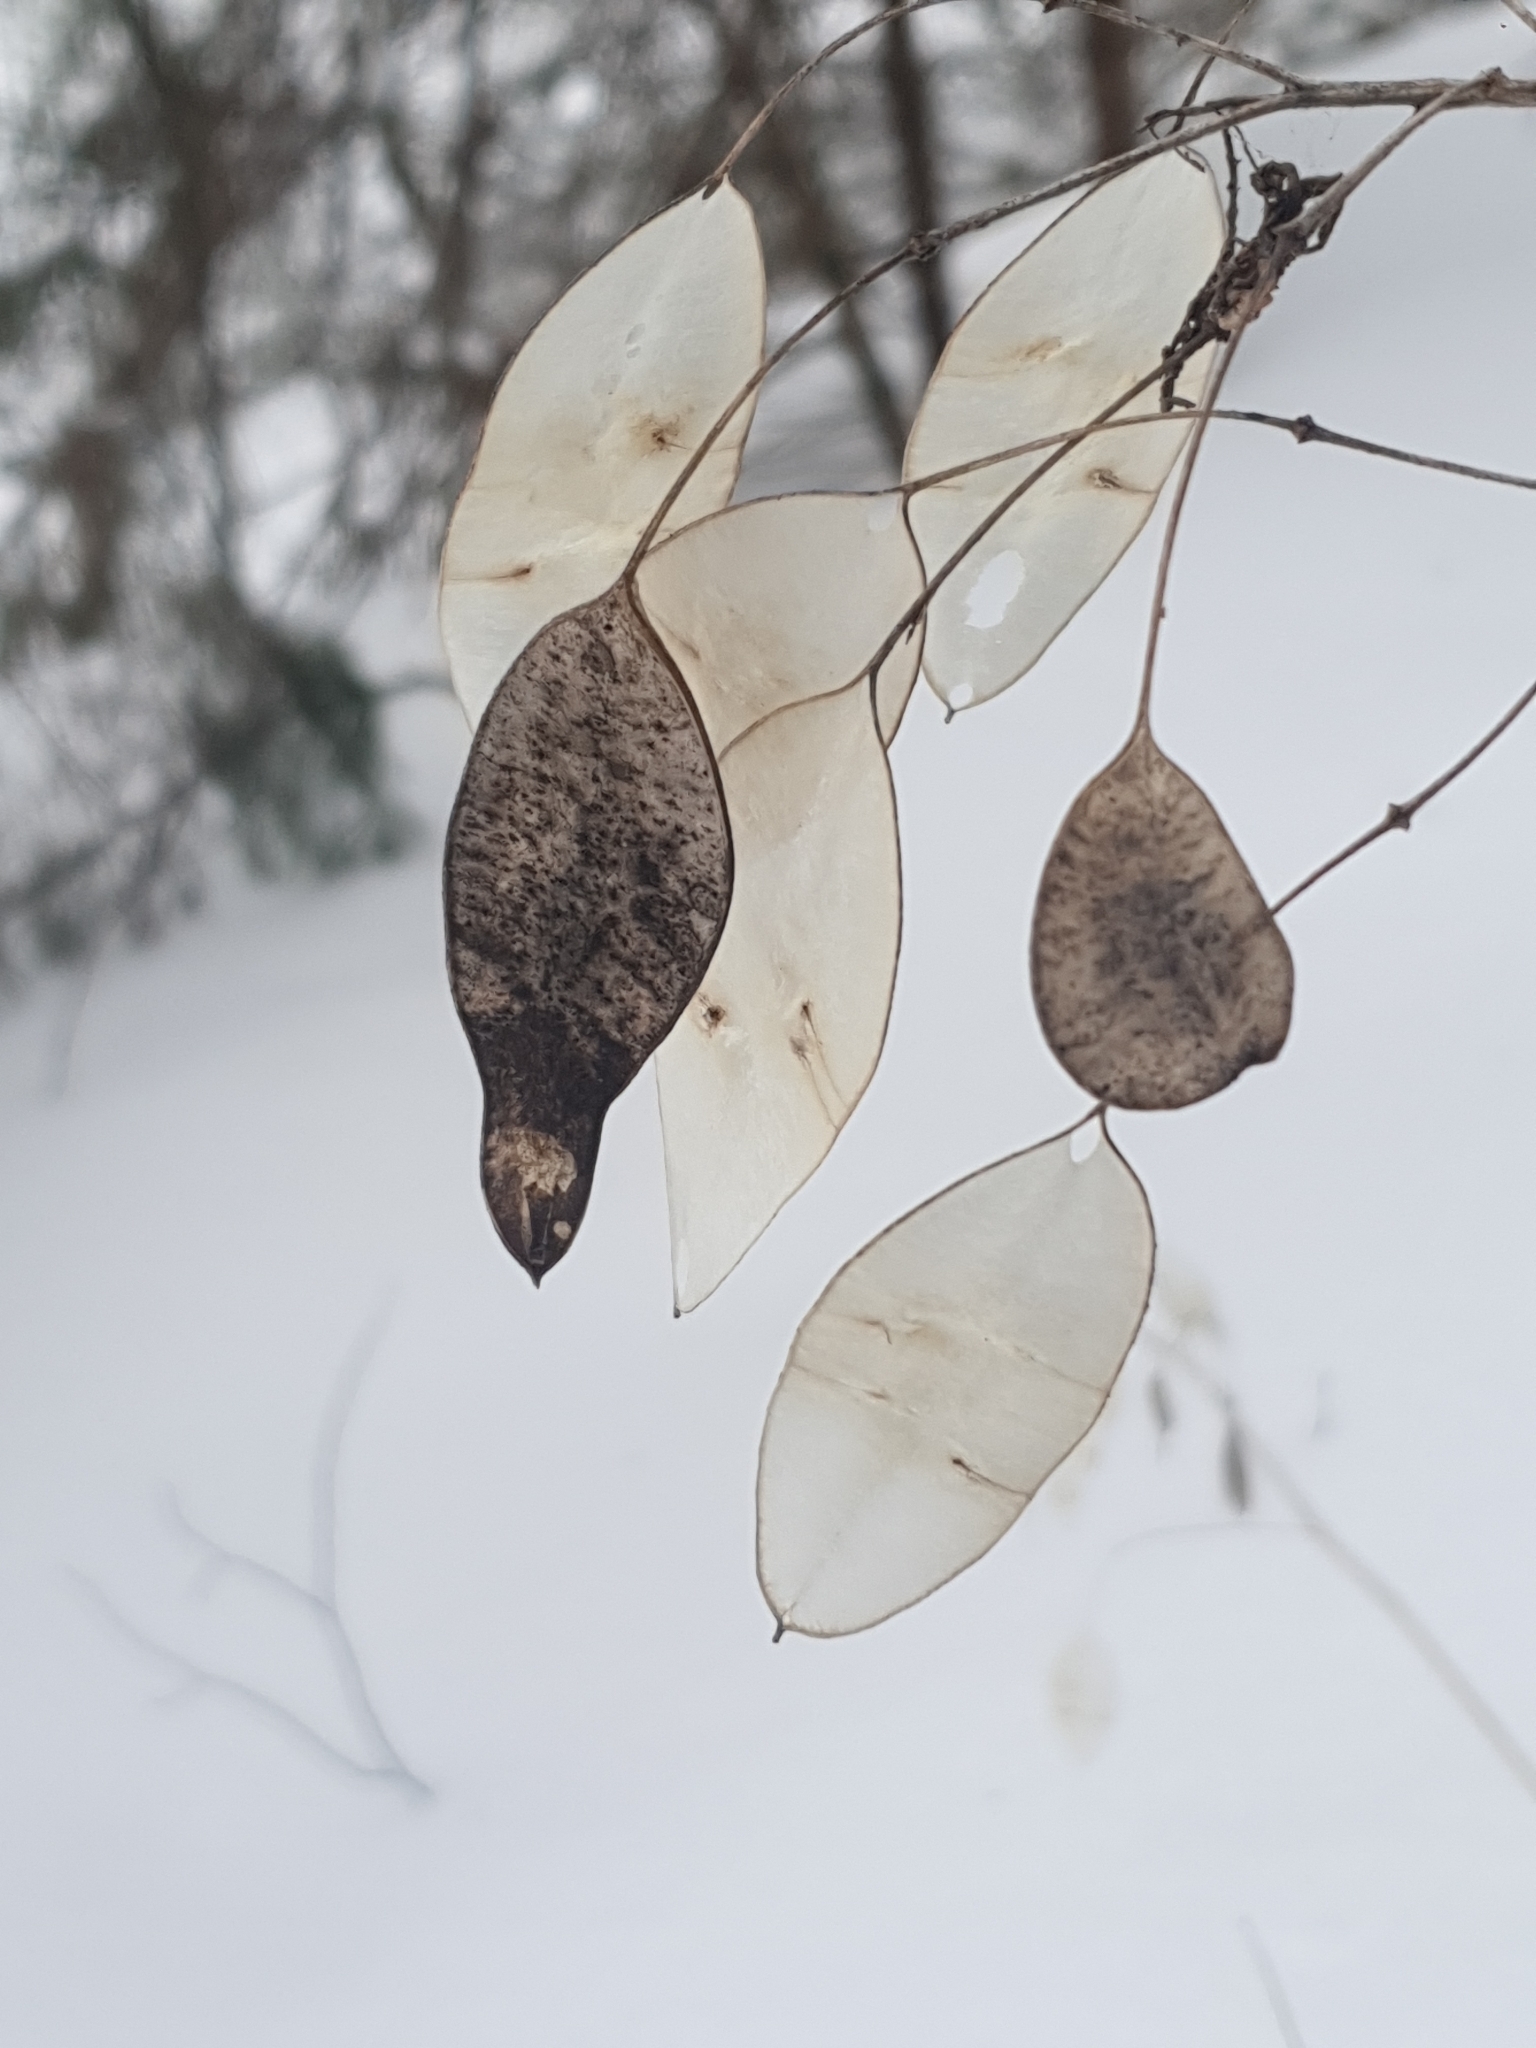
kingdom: Plantae
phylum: Tracheophyta
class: Magnoliopsida
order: Brassicales
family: Brassicaceae
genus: Lunaria
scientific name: Lunaria rediviva
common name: Perennial honesty
